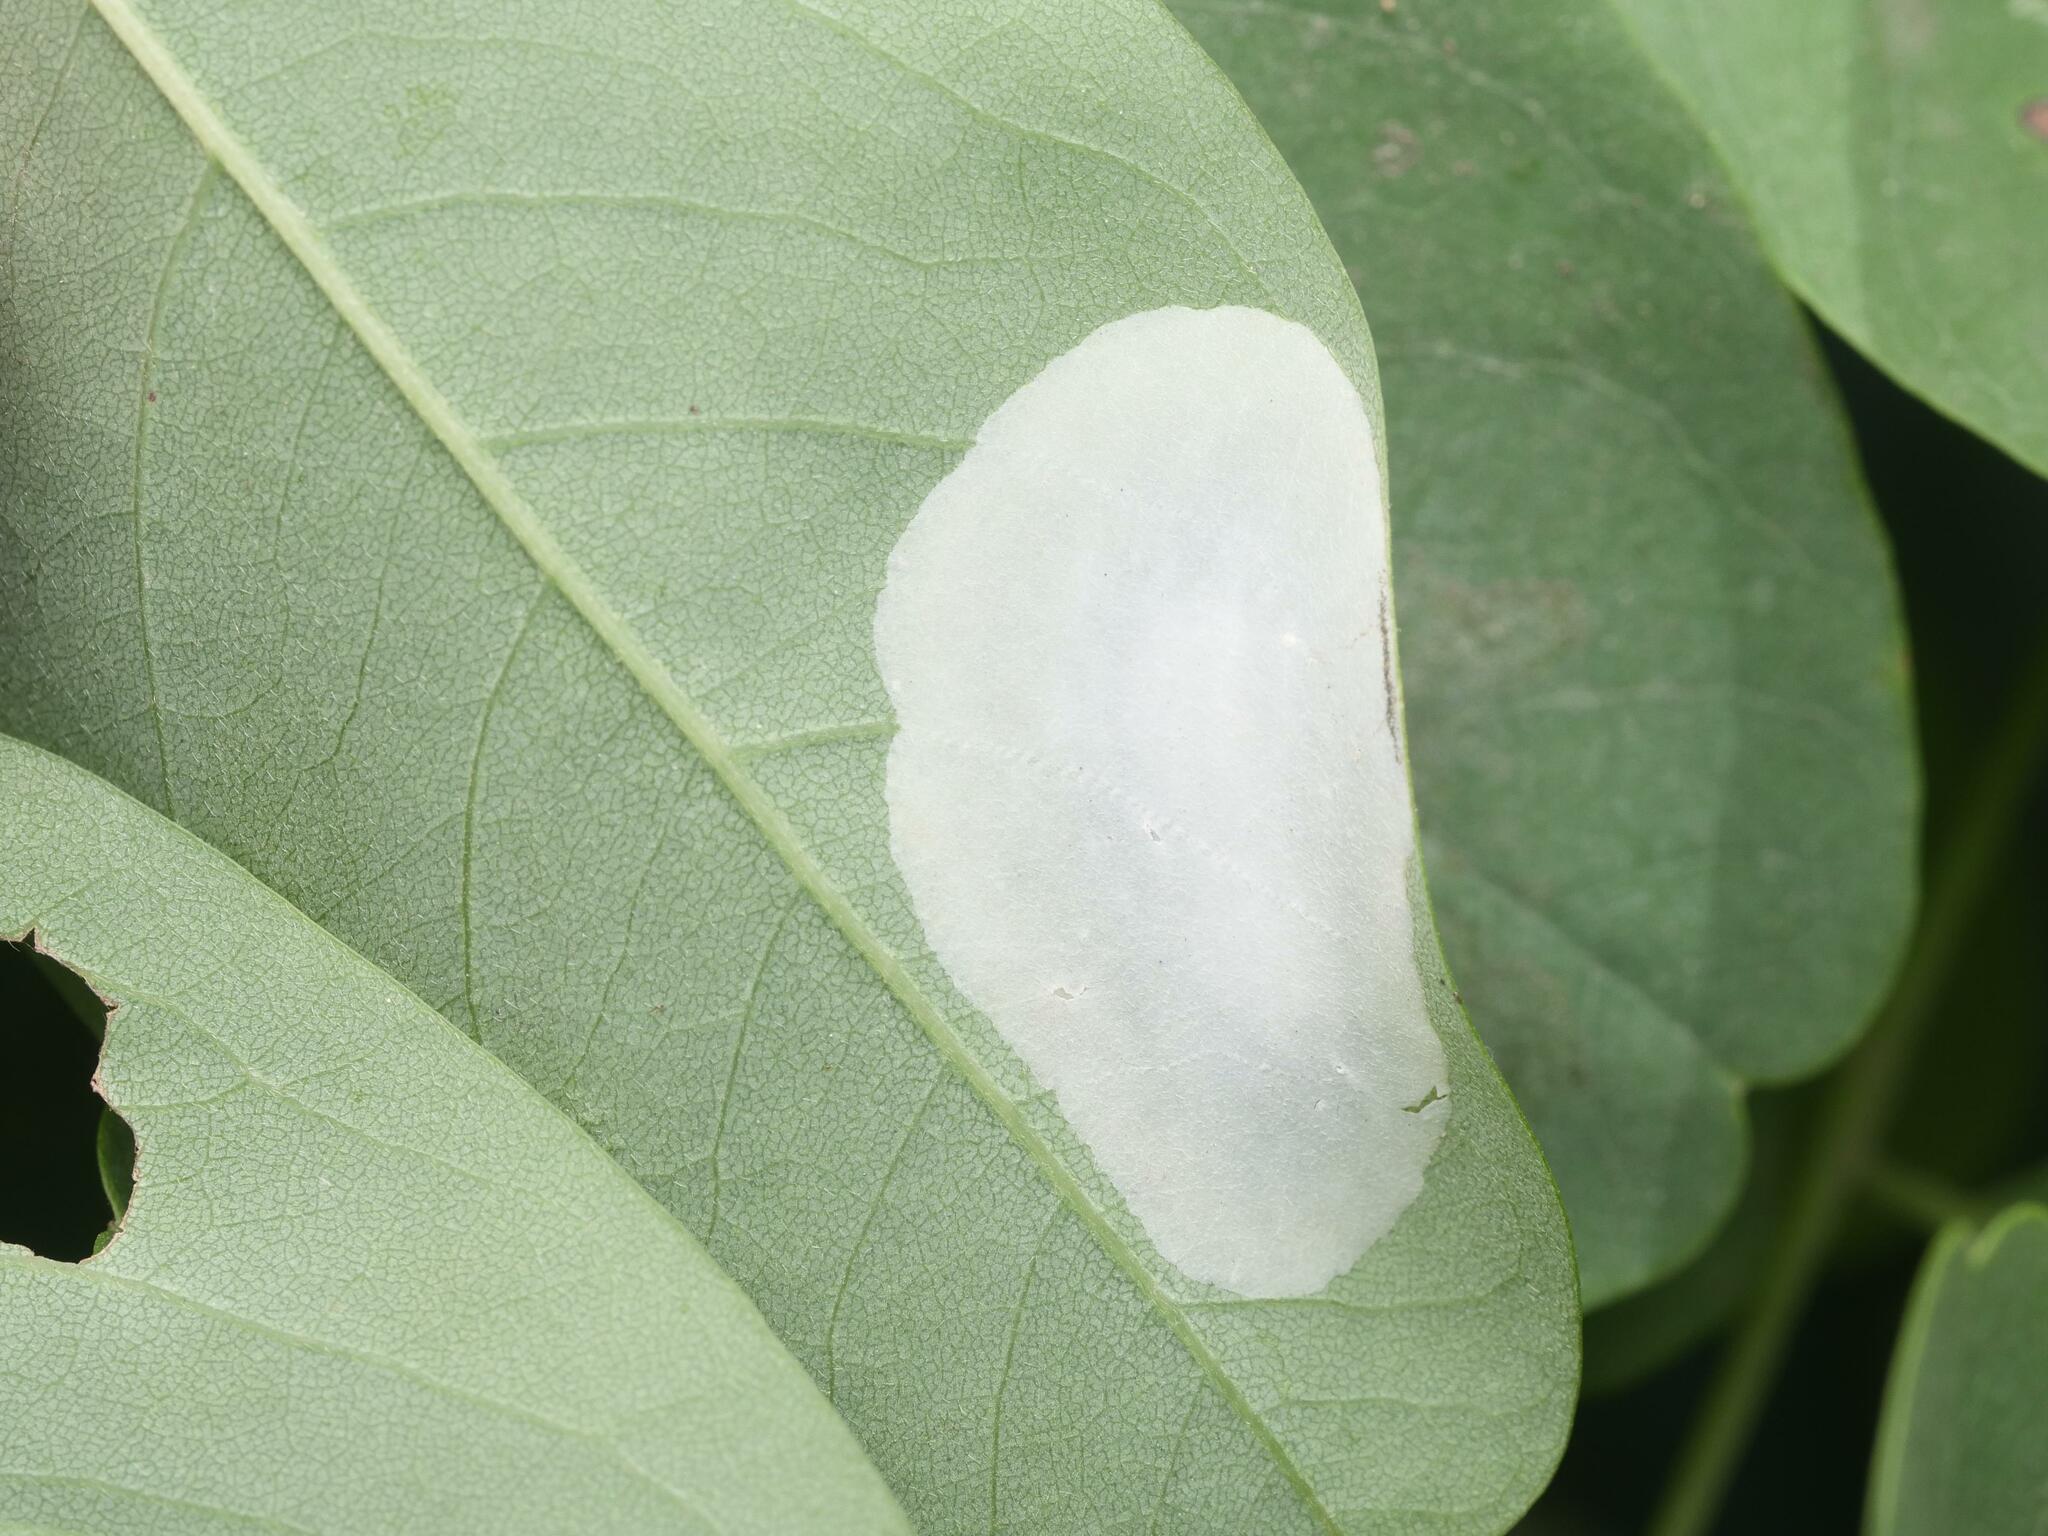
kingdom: Animalia
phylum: Arthropoda
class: Insecta
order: Lepidoptera
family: Gracillariidae
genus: Macrosaccus
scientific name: Macrosaccus robiniella
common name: Leaf blotch miner moth
